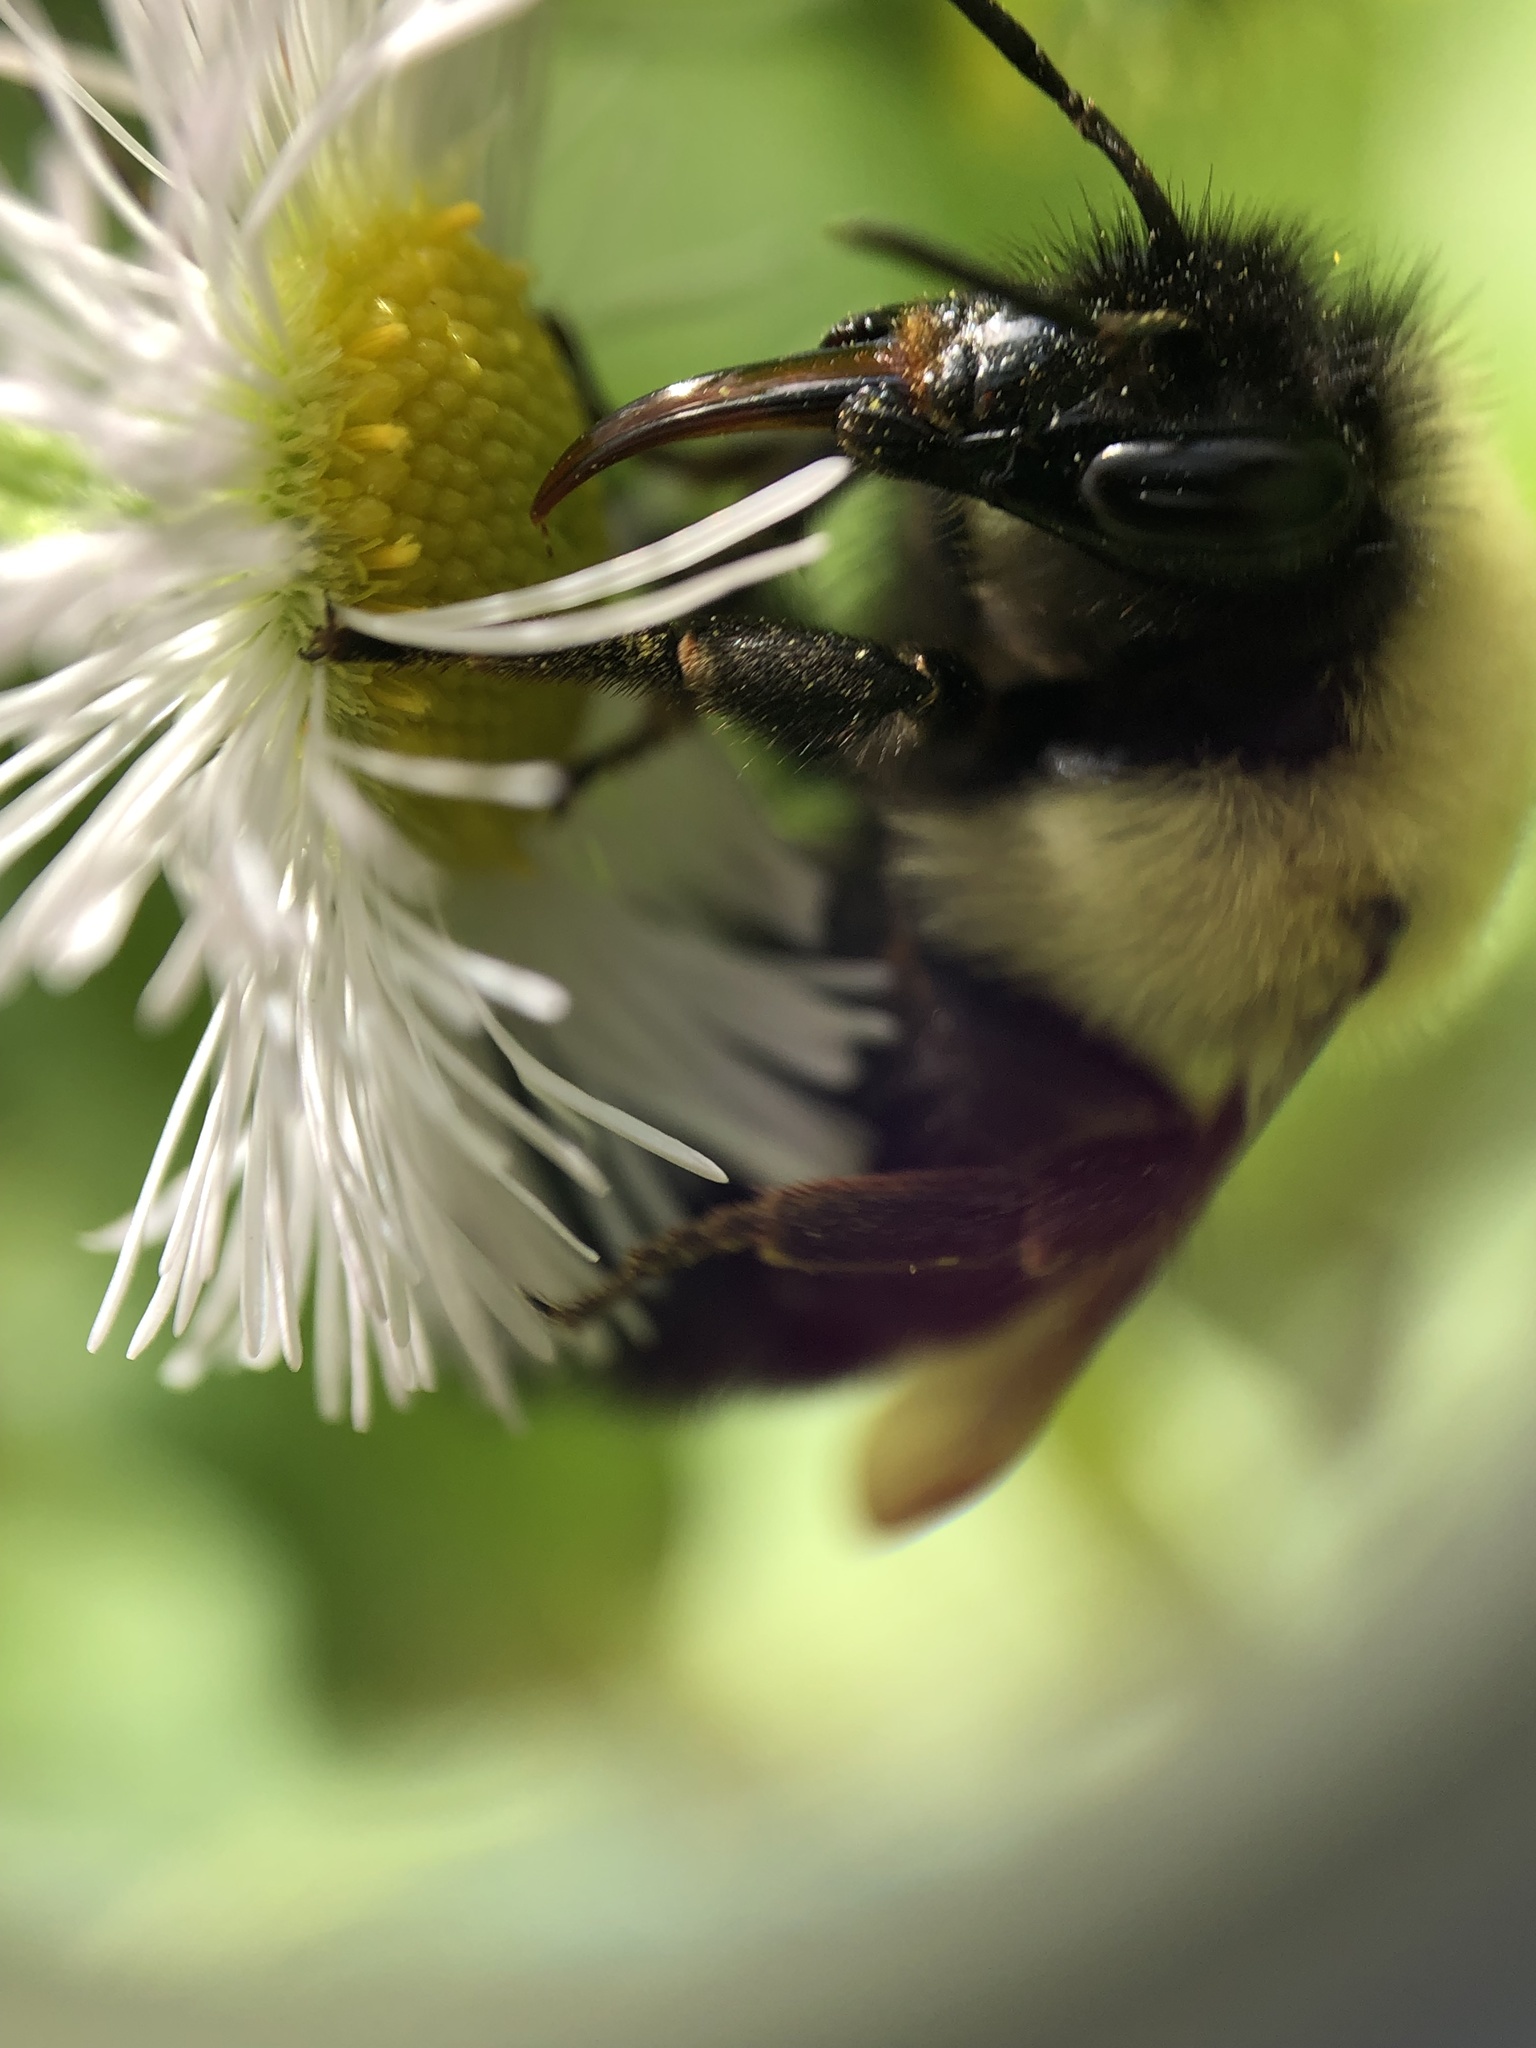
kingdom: Animalia
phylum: Arthropoda
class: Insecta
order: Hymenoptera
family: Apidae
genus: Bombus
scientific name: Bombus bimaculatus
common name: Two-spotted bumble bee
